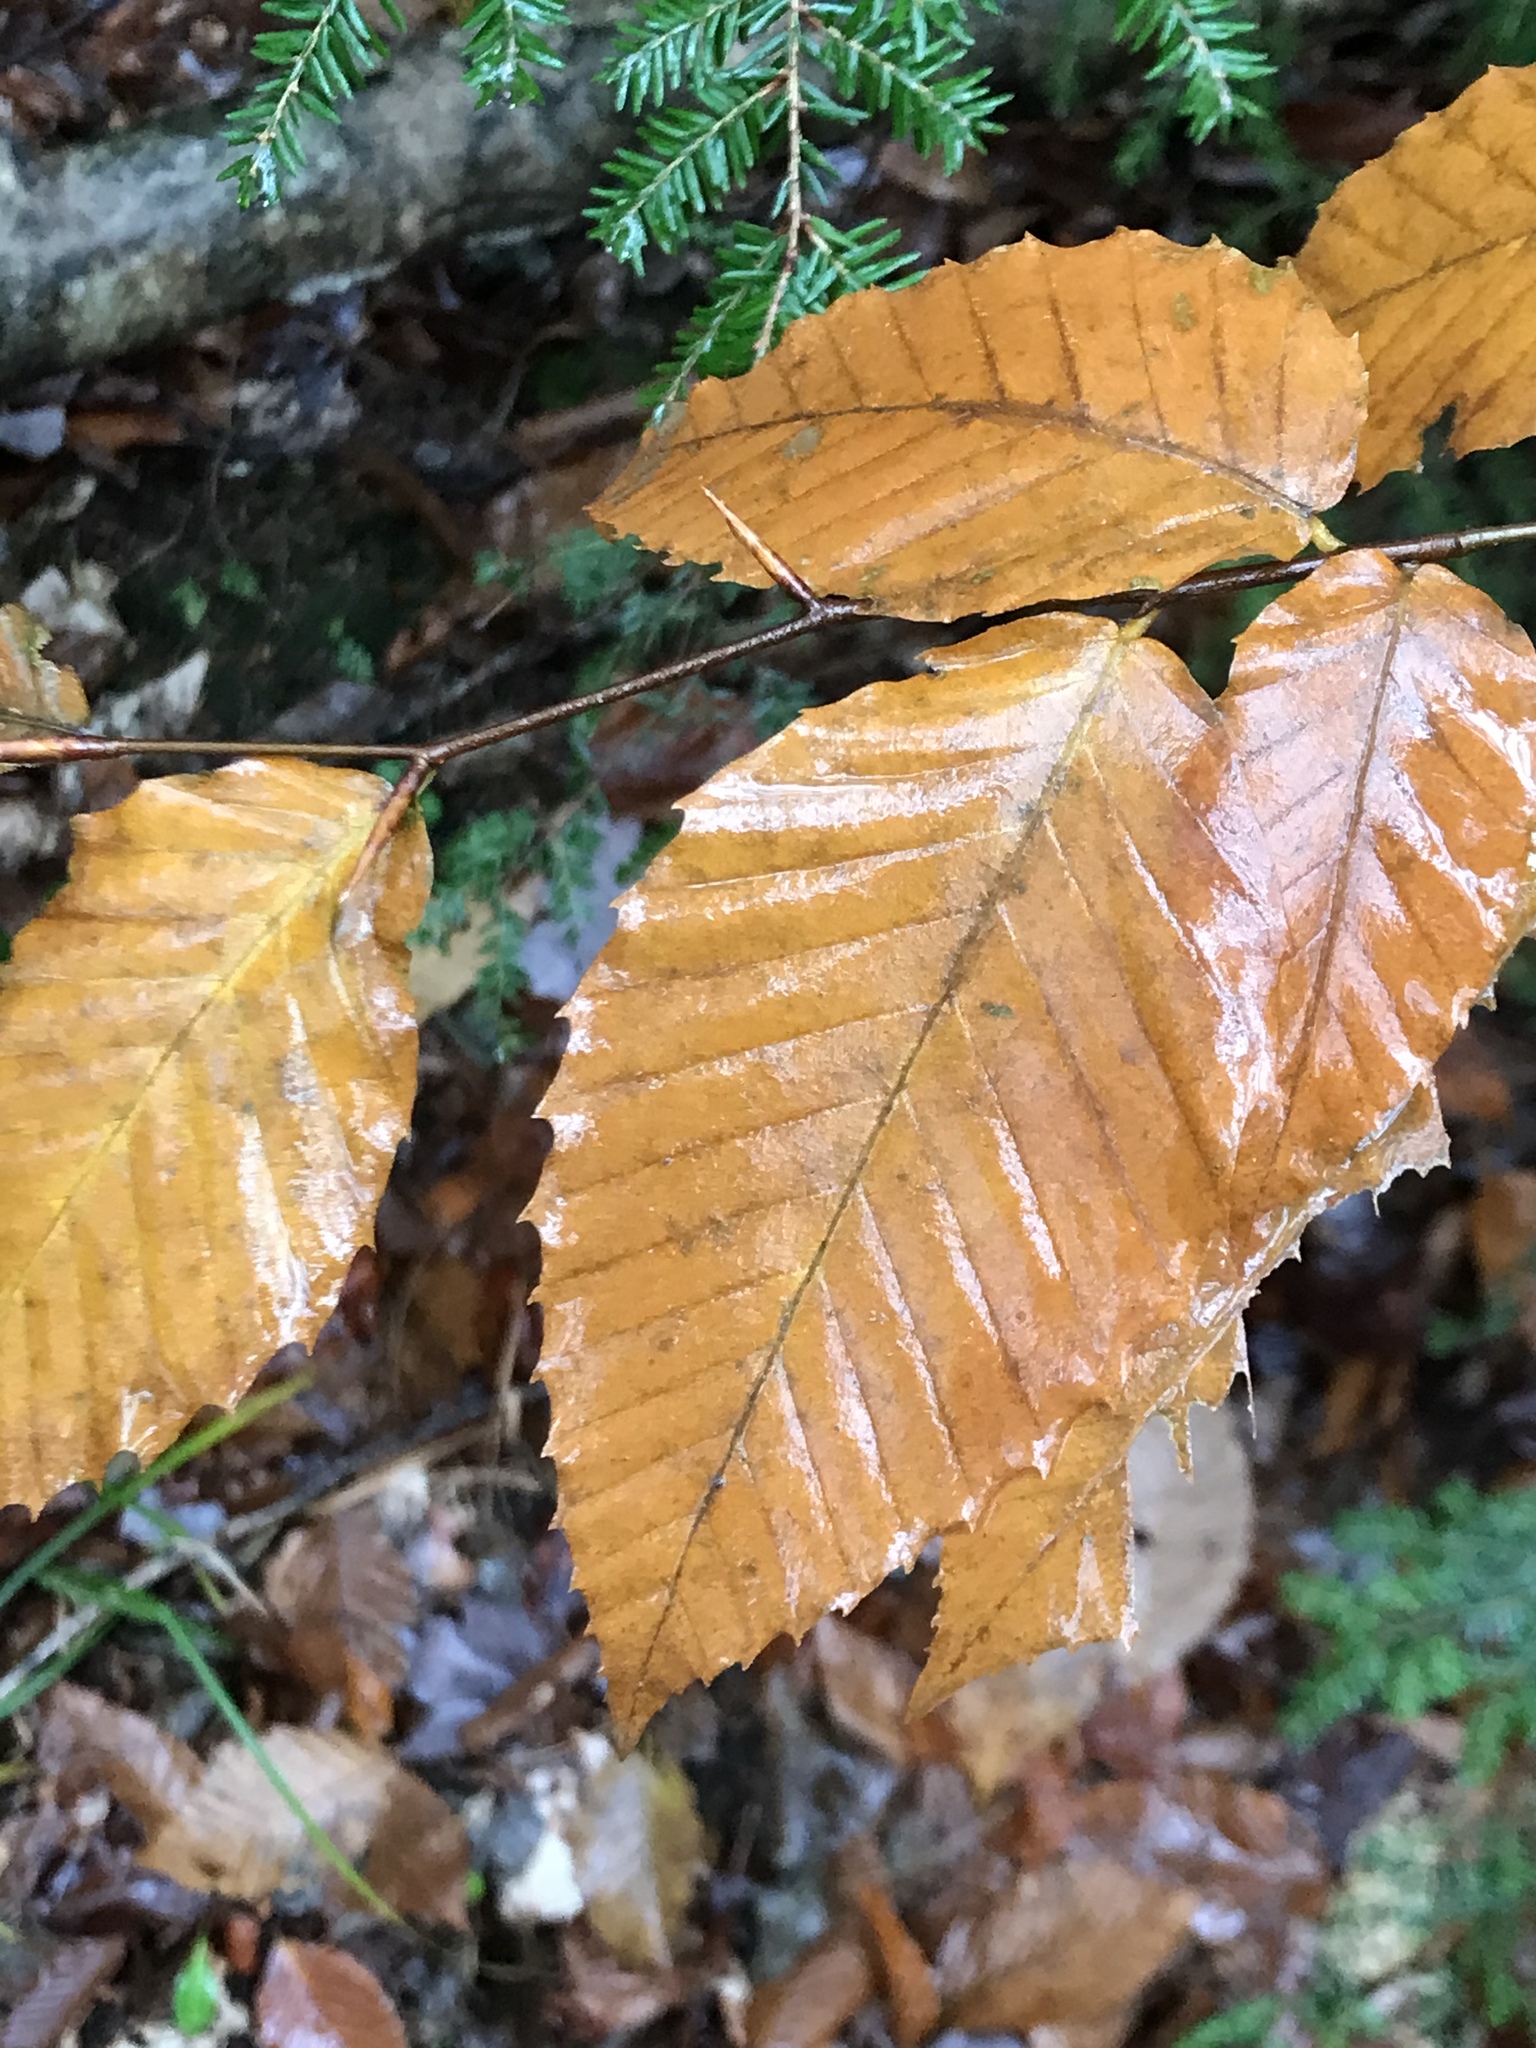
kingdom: Plantae
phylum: Tracheophyta
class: Magnoliopsida
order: Fagales
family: Fagaceae
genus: Fagus
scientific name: Fagus grandifolia
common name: American beech
